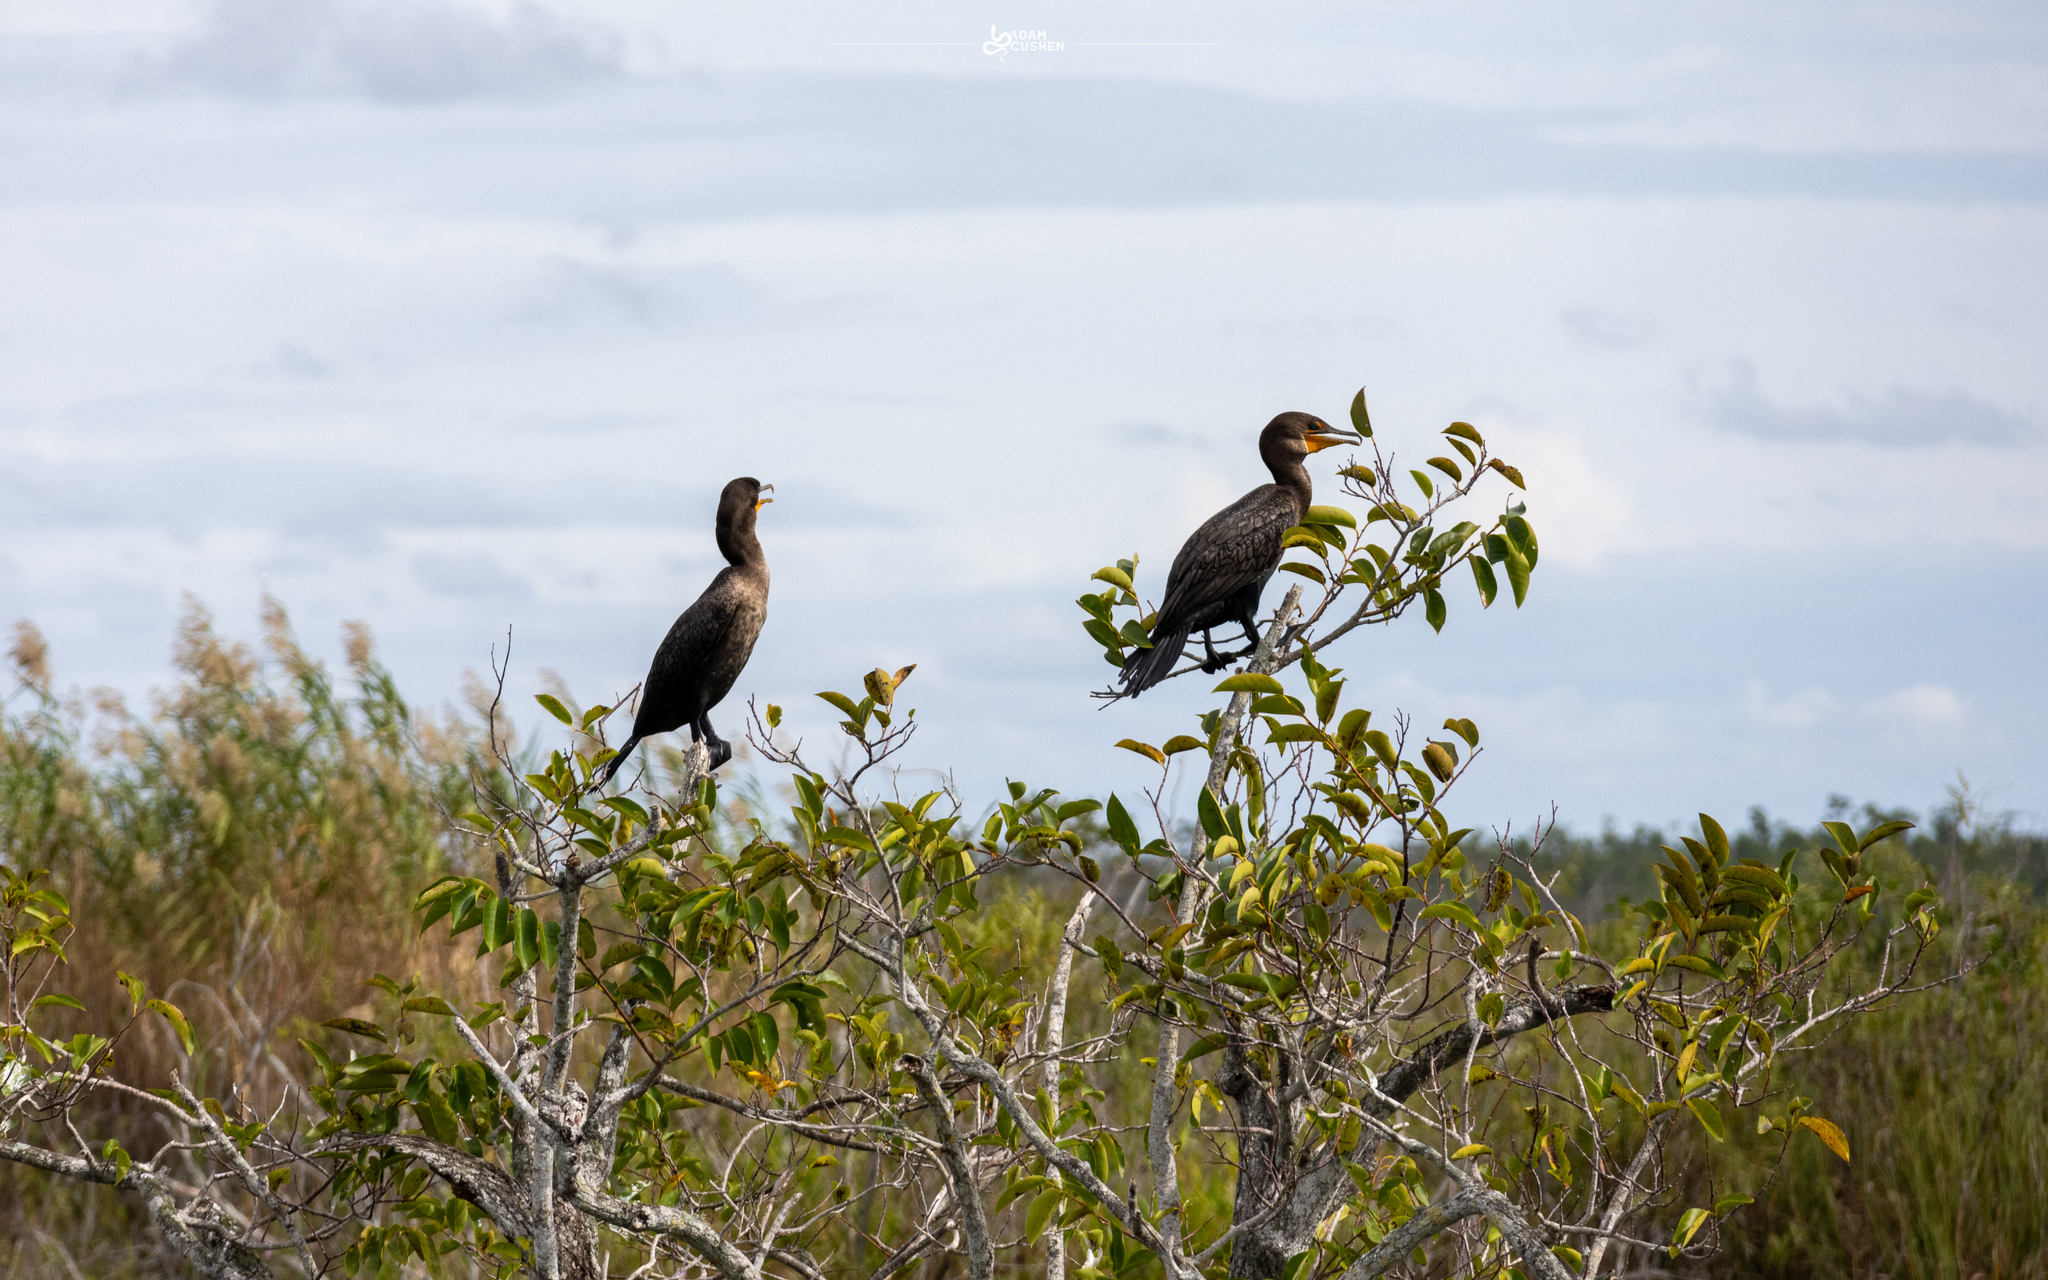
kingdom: Animalia
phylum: Chordata
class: Aves
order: Suliformes
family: Phalacrocoracidae
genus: Phalacrocorax
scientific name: Phalacrocorax auritus
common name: Double-crested cormorant
